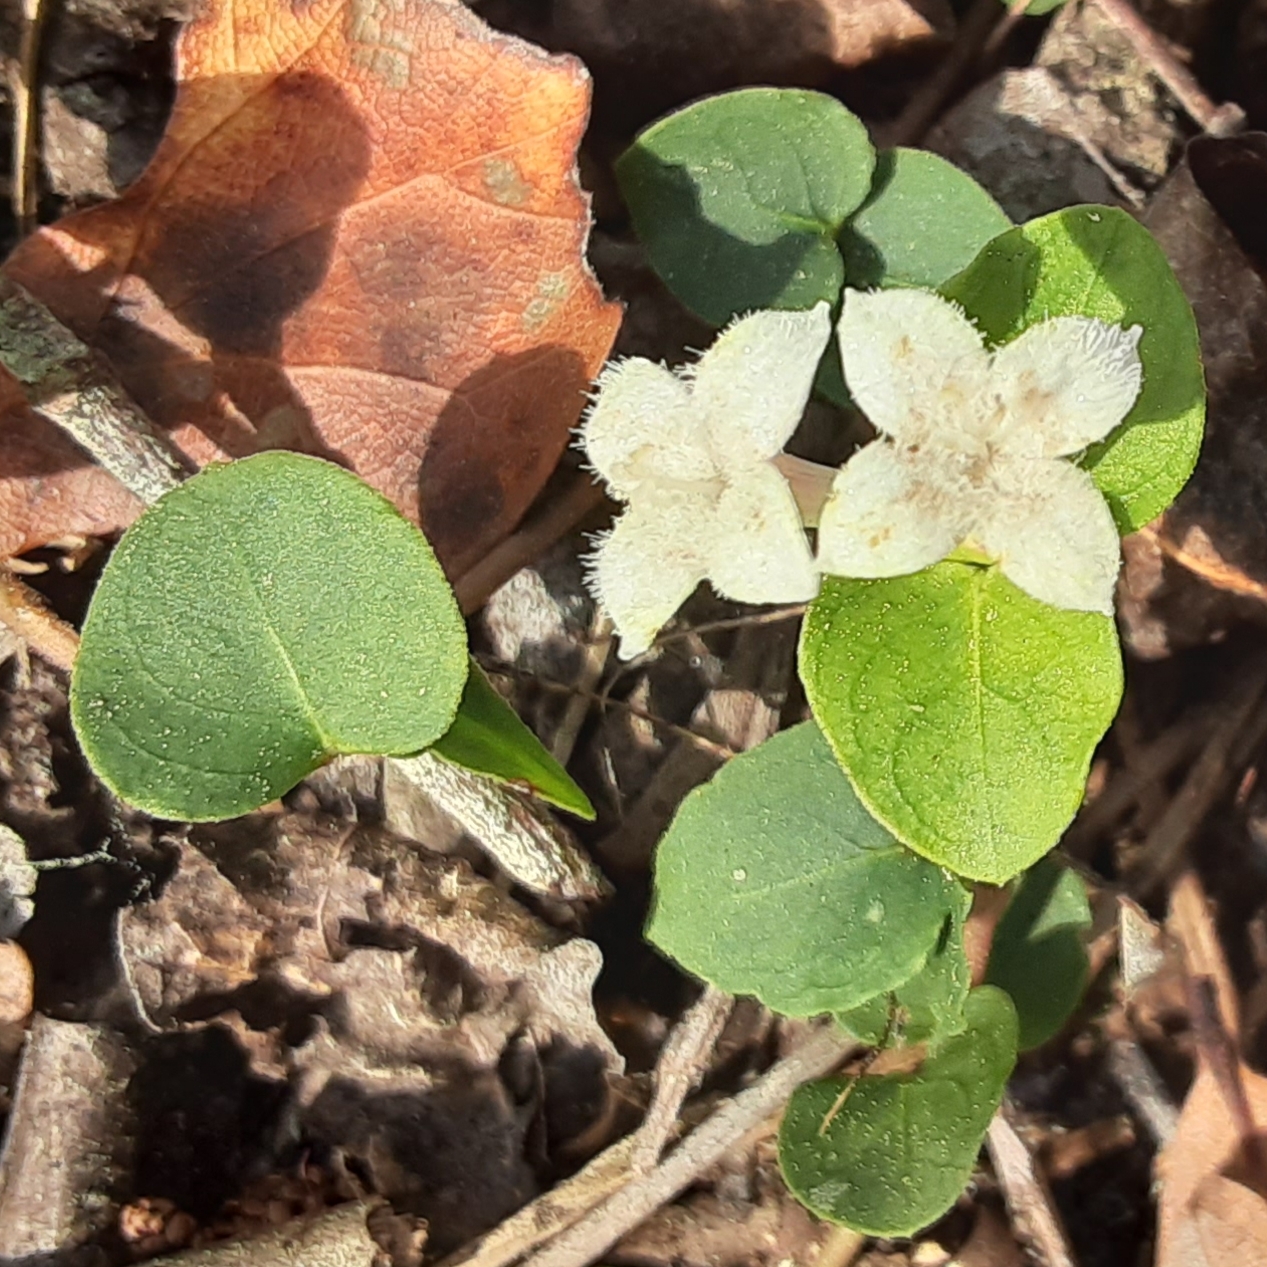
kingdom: Plantae
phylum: Tracheophyta
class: Magnoliopsida
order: Gentianales
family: Rubiaceae
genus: Mitchella
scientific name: Mitchella repens
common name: Partridge-berry
